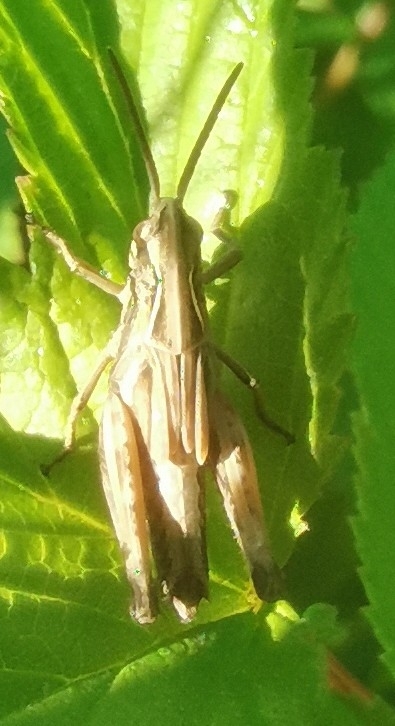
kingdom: Animalia
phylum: Arthropoda
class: Insecta
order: Orthoptera
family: Acrididae
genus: Omocestus
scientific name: Omocestus viridulus
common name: Common green grasshopper
